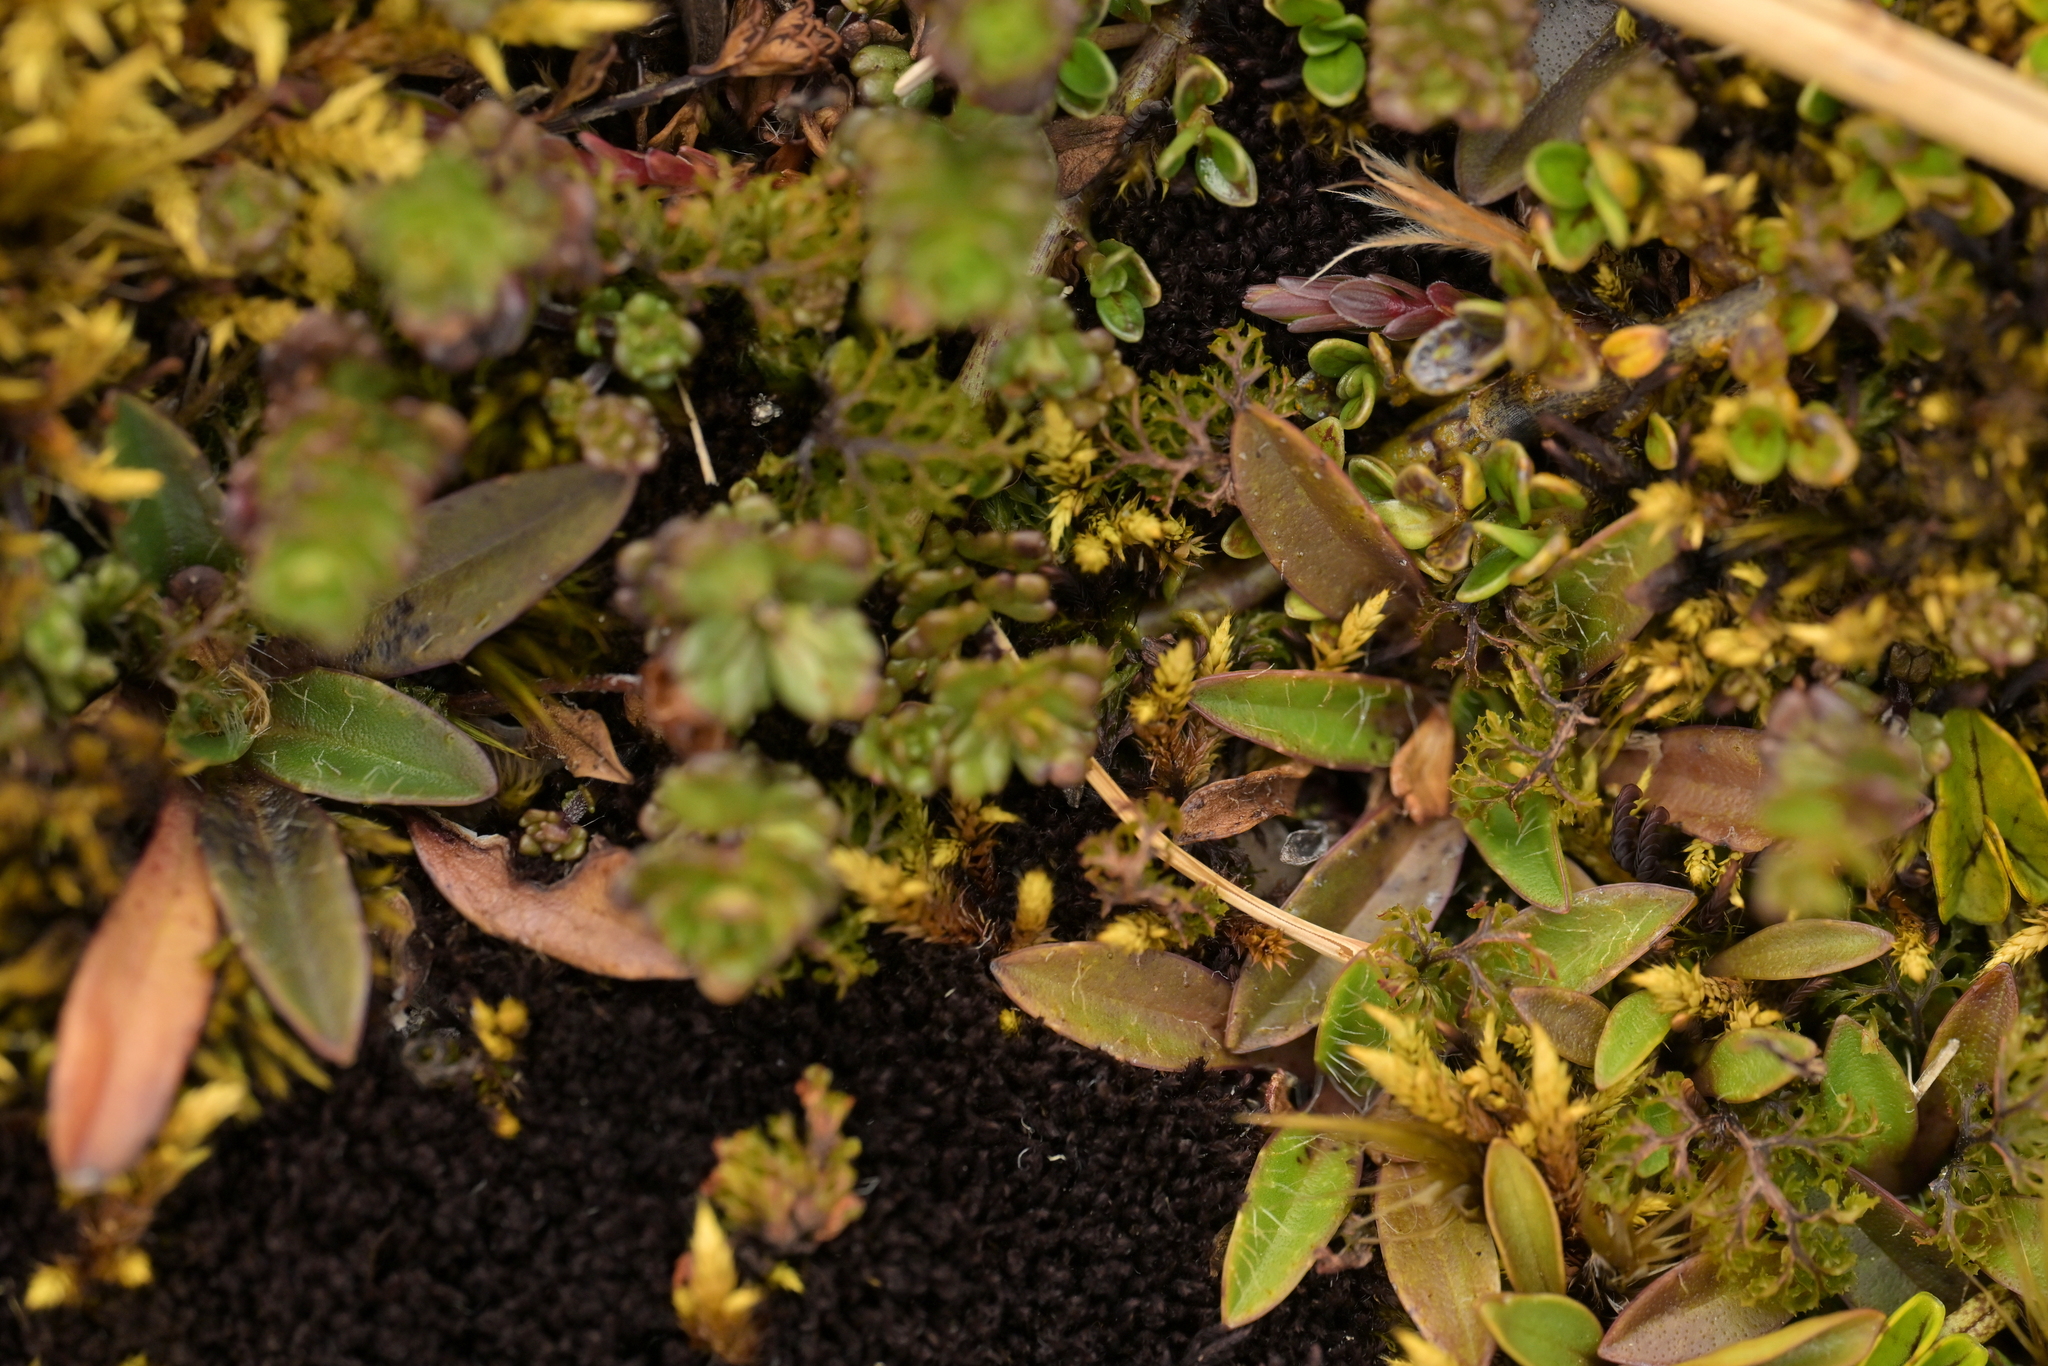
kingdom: Plantae
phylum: Tracheophyta
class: Magnoliopsida
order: Lamiales
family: Plantaginaceae
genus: Plantago
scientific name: Plantago unibracteata
